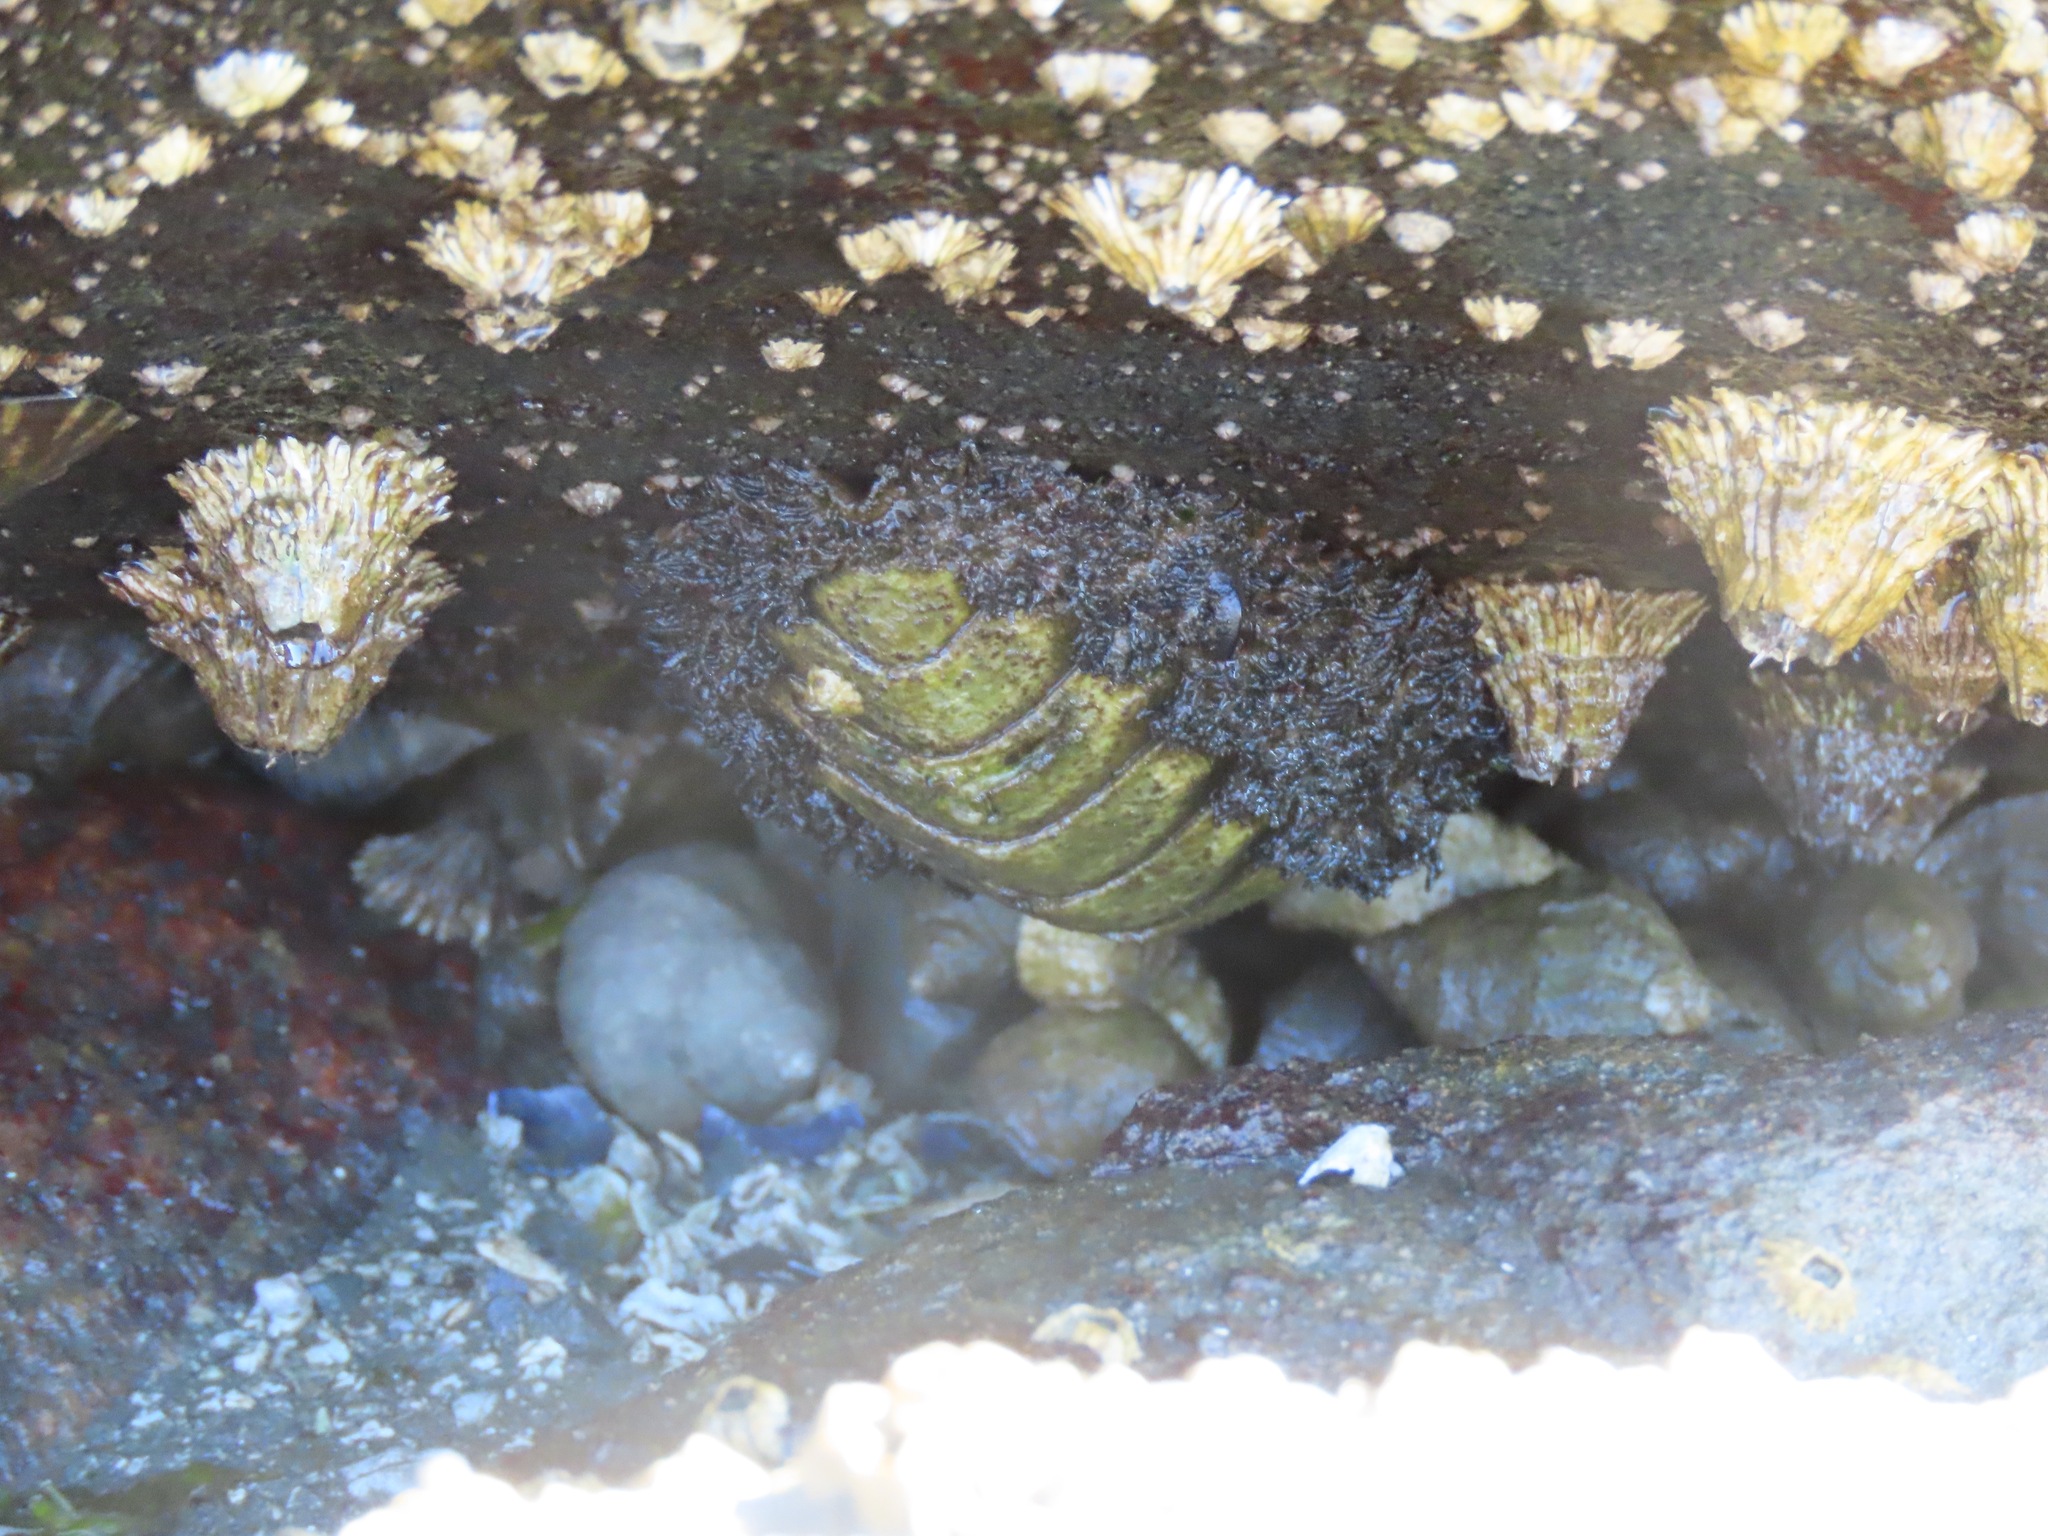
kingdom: Animalia
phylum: Mollusca
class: Polyplacophora
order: Chitonida
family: Mopaliidae
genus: Mopalia
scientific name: Mopalia muscosa
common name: Mossy chiton
